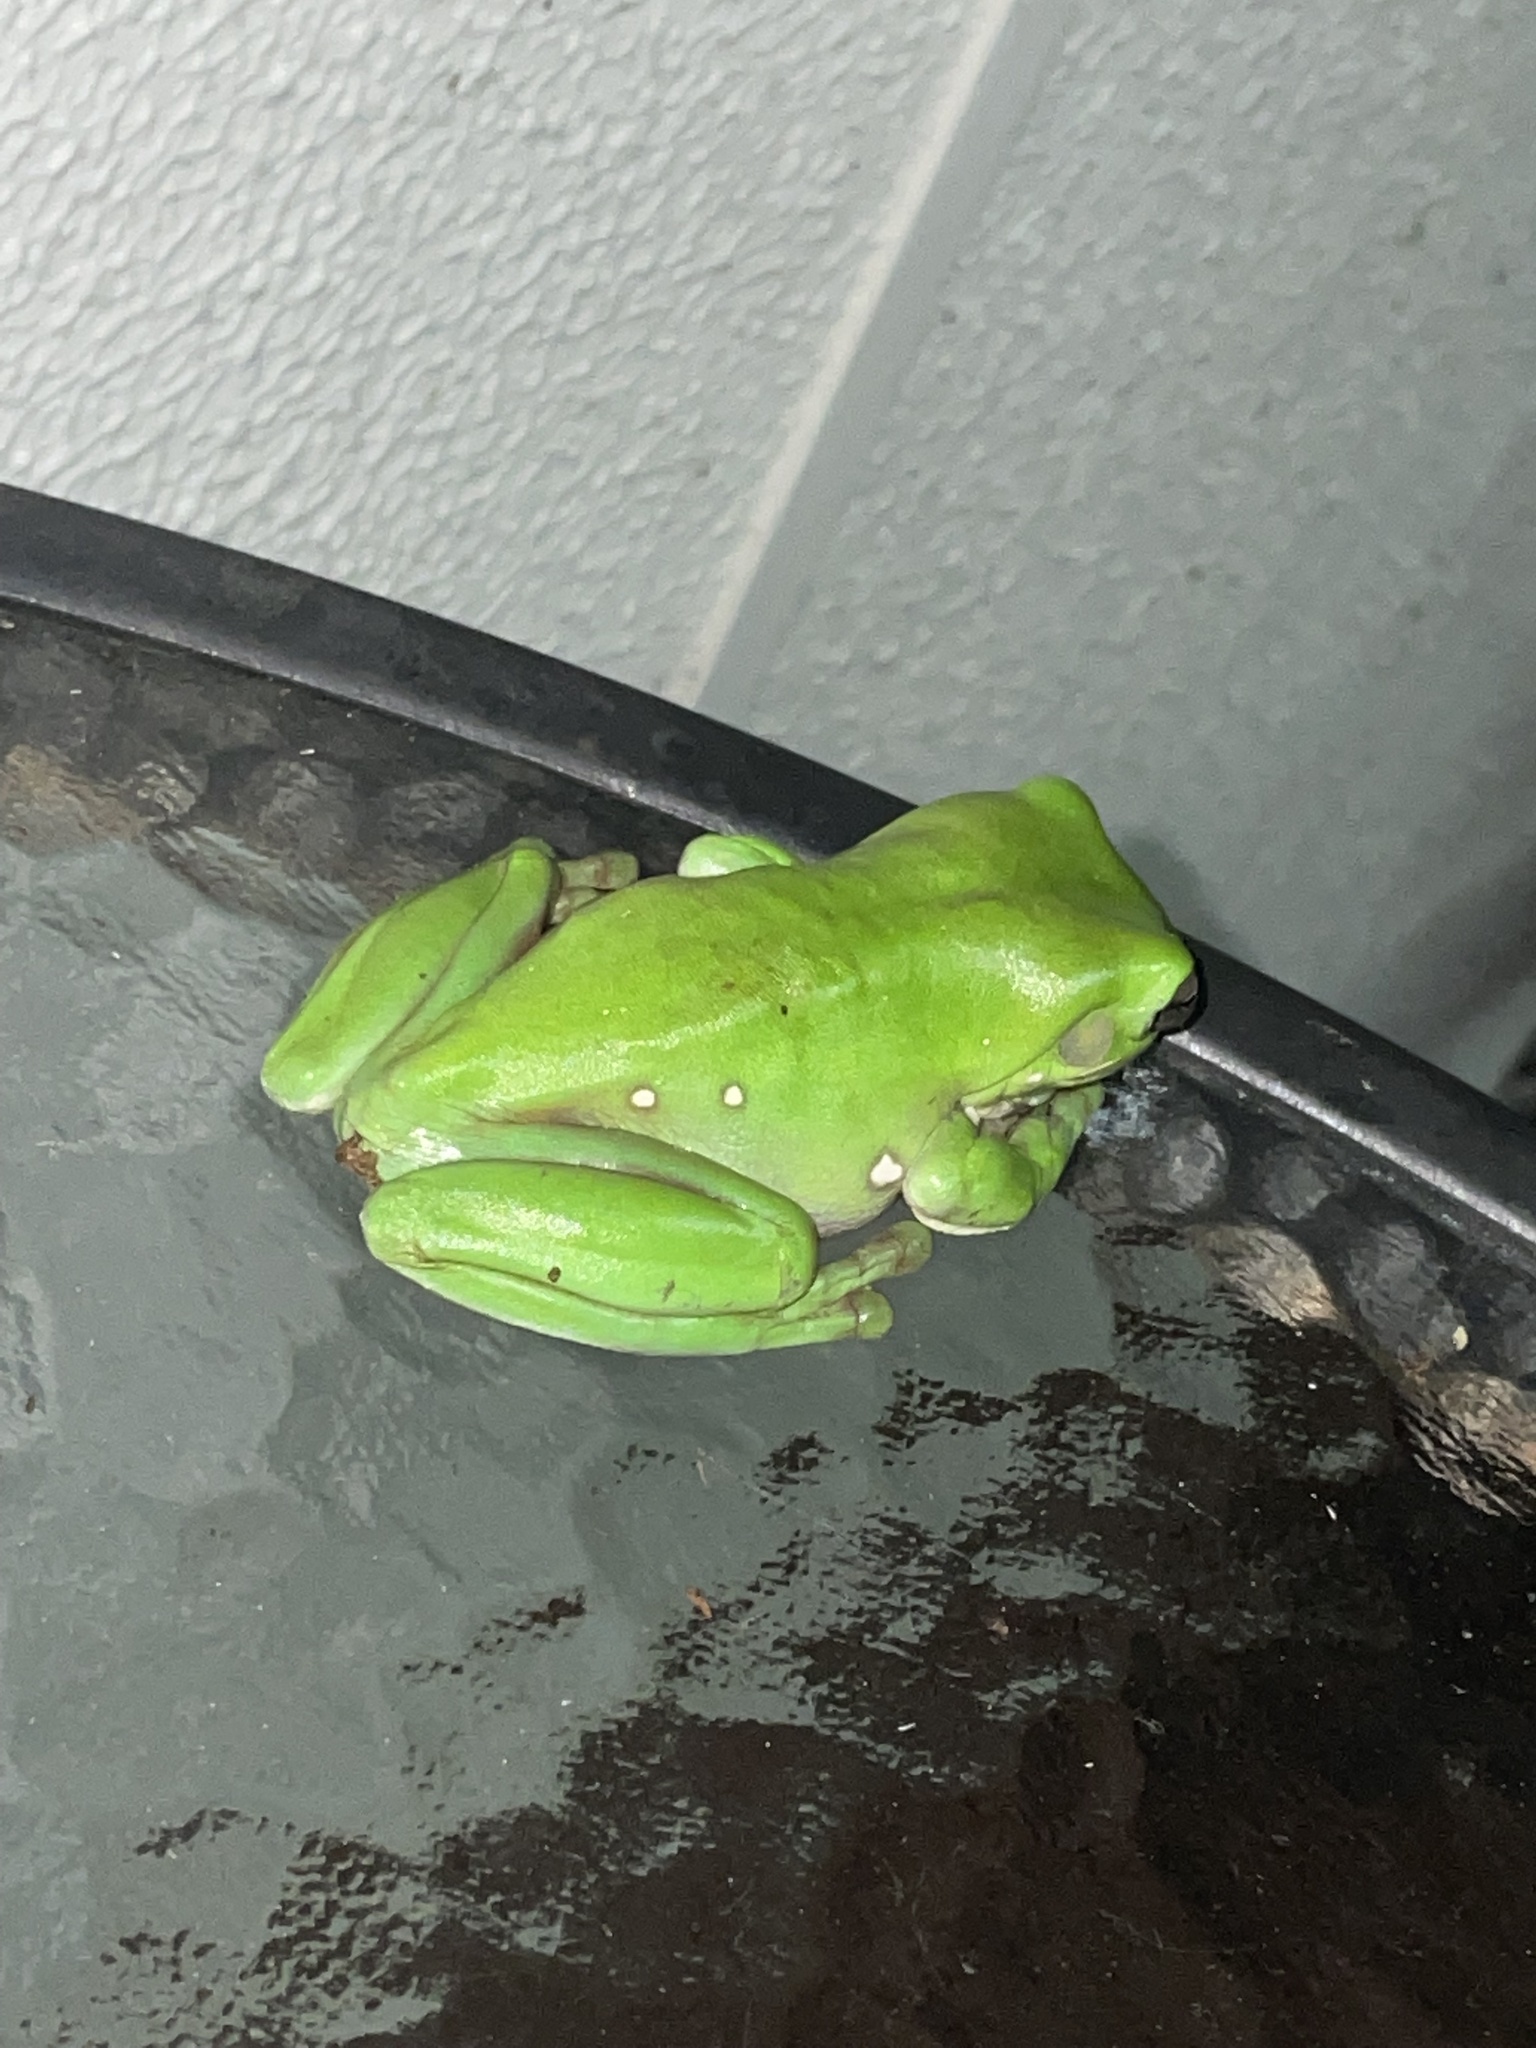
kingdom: Animalia
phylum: Chordata
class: Amphibia
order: Anura
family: Pelodryadidae
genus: Ranoidea
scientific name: Ranoidea caerulea
